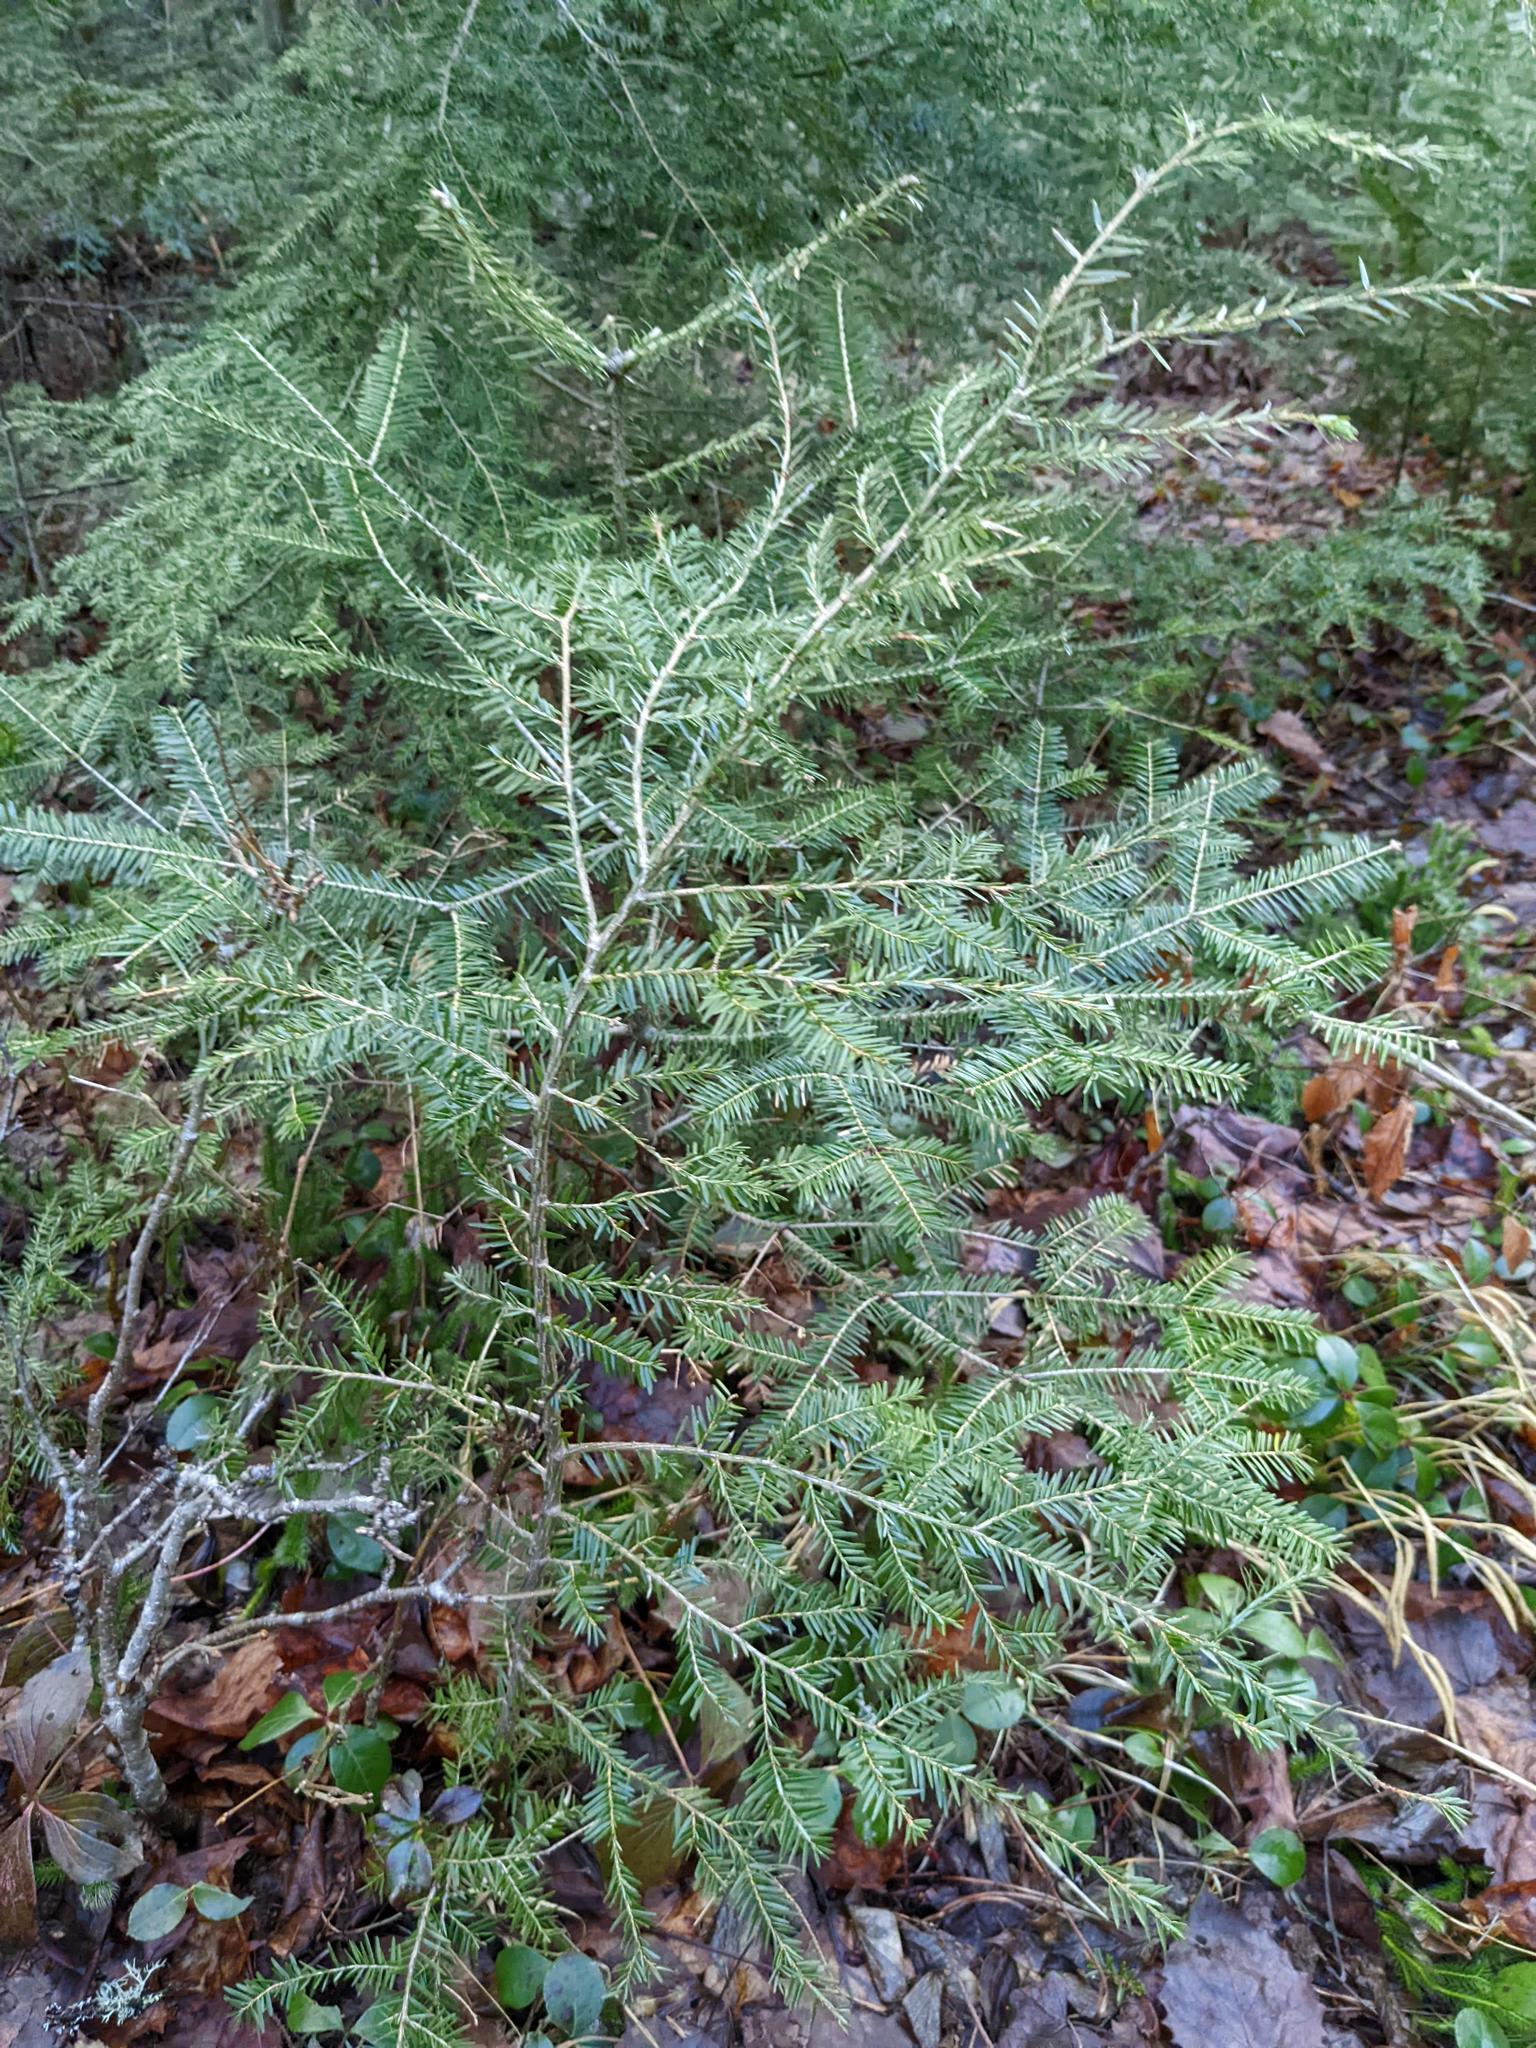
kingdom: Plantae
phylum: Tracheophyta
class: Pinopsida
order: Pinales
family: Pinaceae
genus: Tsuga
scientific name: Tsuga canadensis
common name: Eastern hemlock
